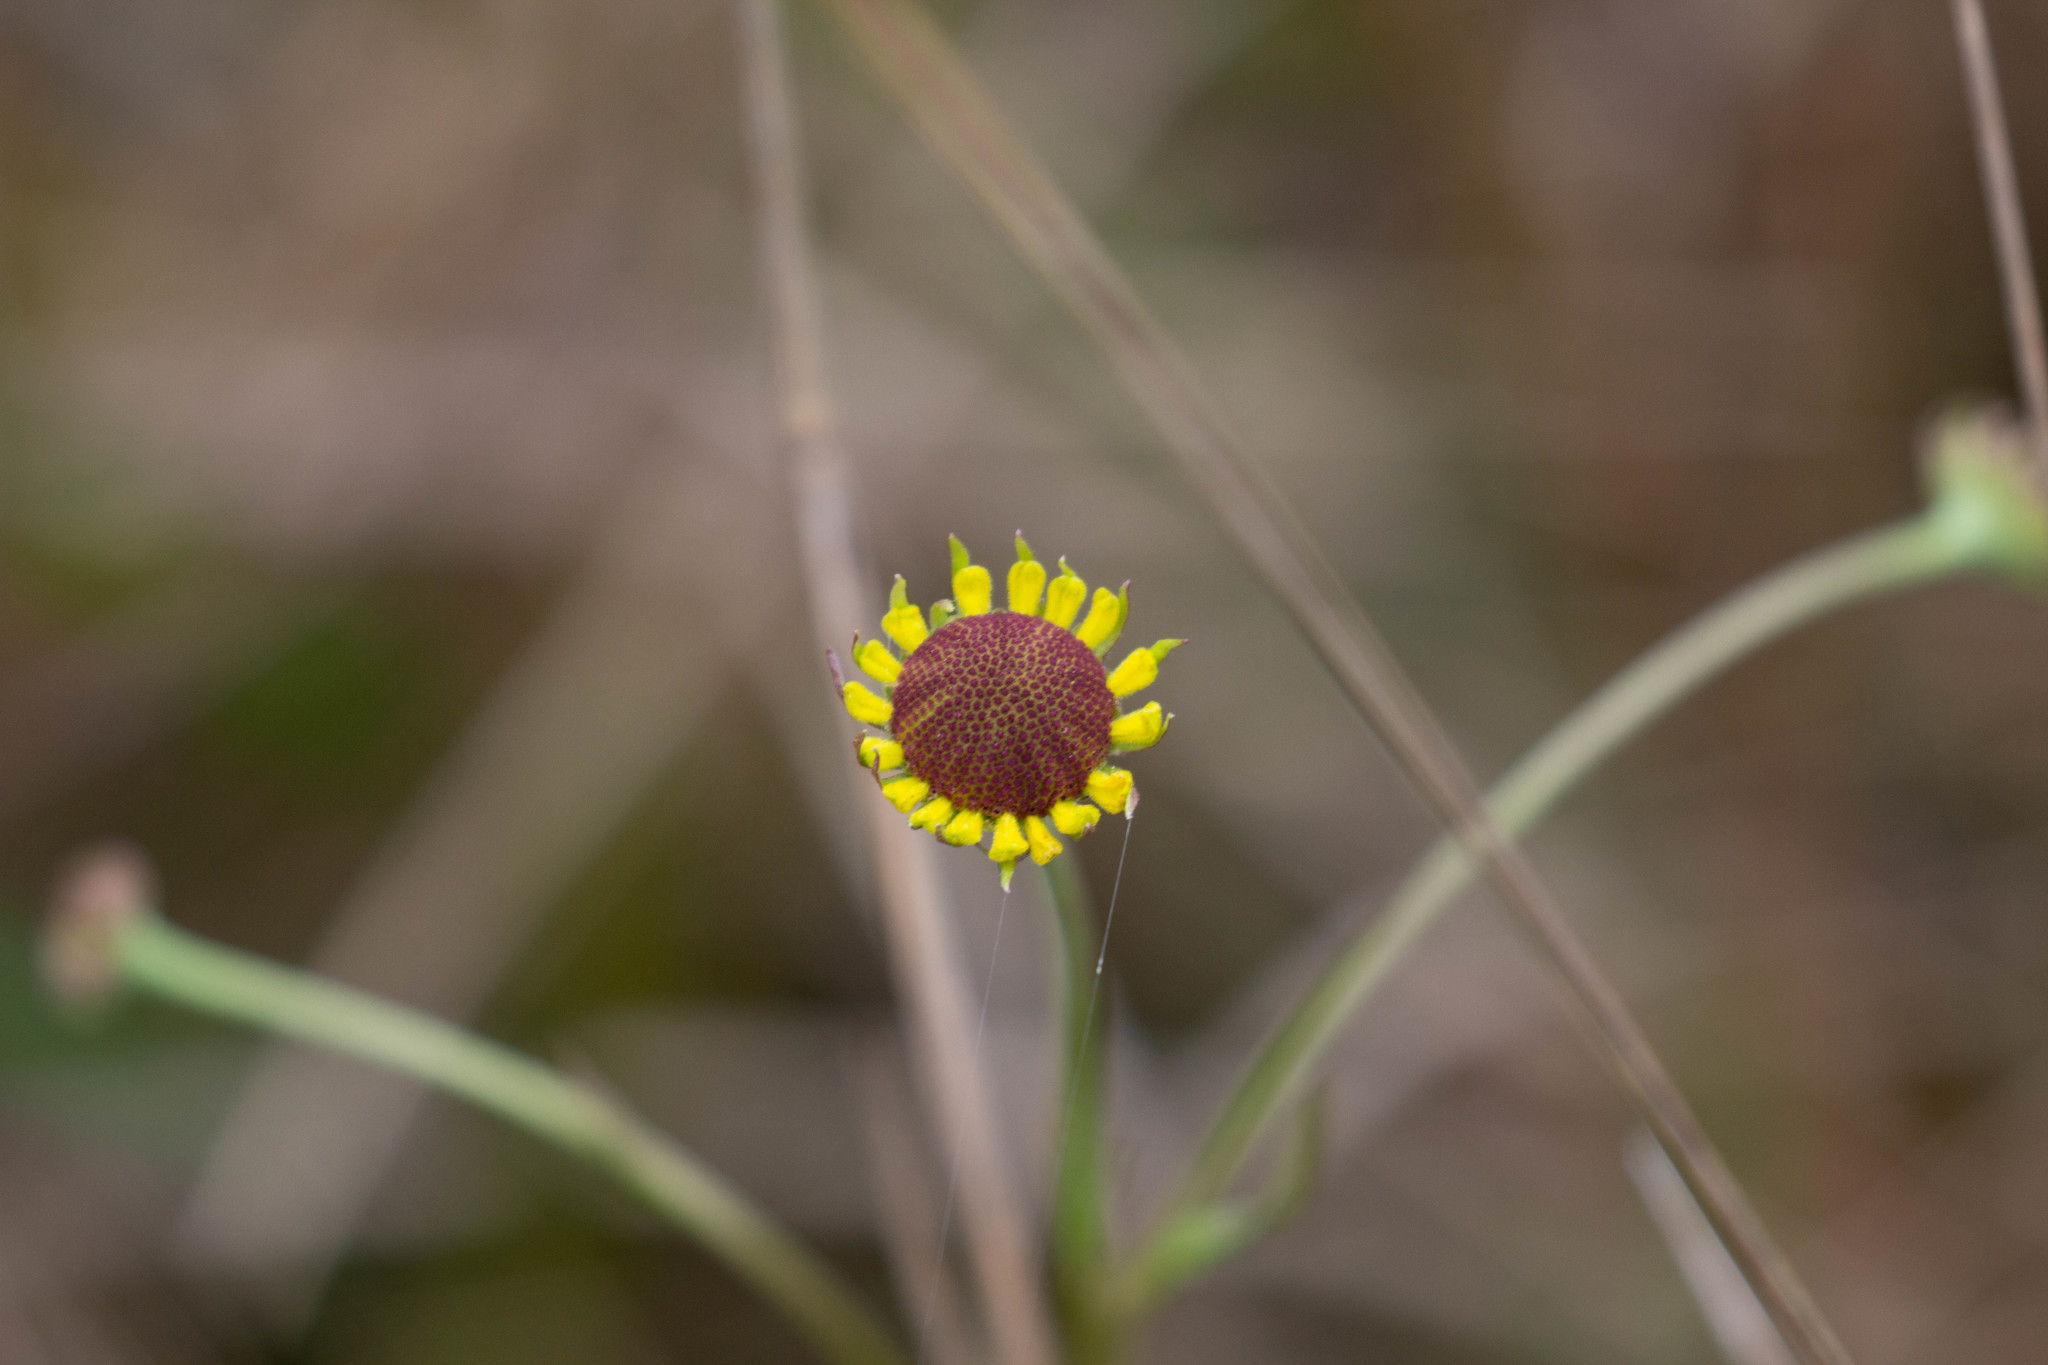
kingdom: Plantae
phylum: Tracheophyta
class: Magnoliopsida
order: Asterales
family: Asteraceae
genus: Helenium
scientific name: Helenium brevifolium
